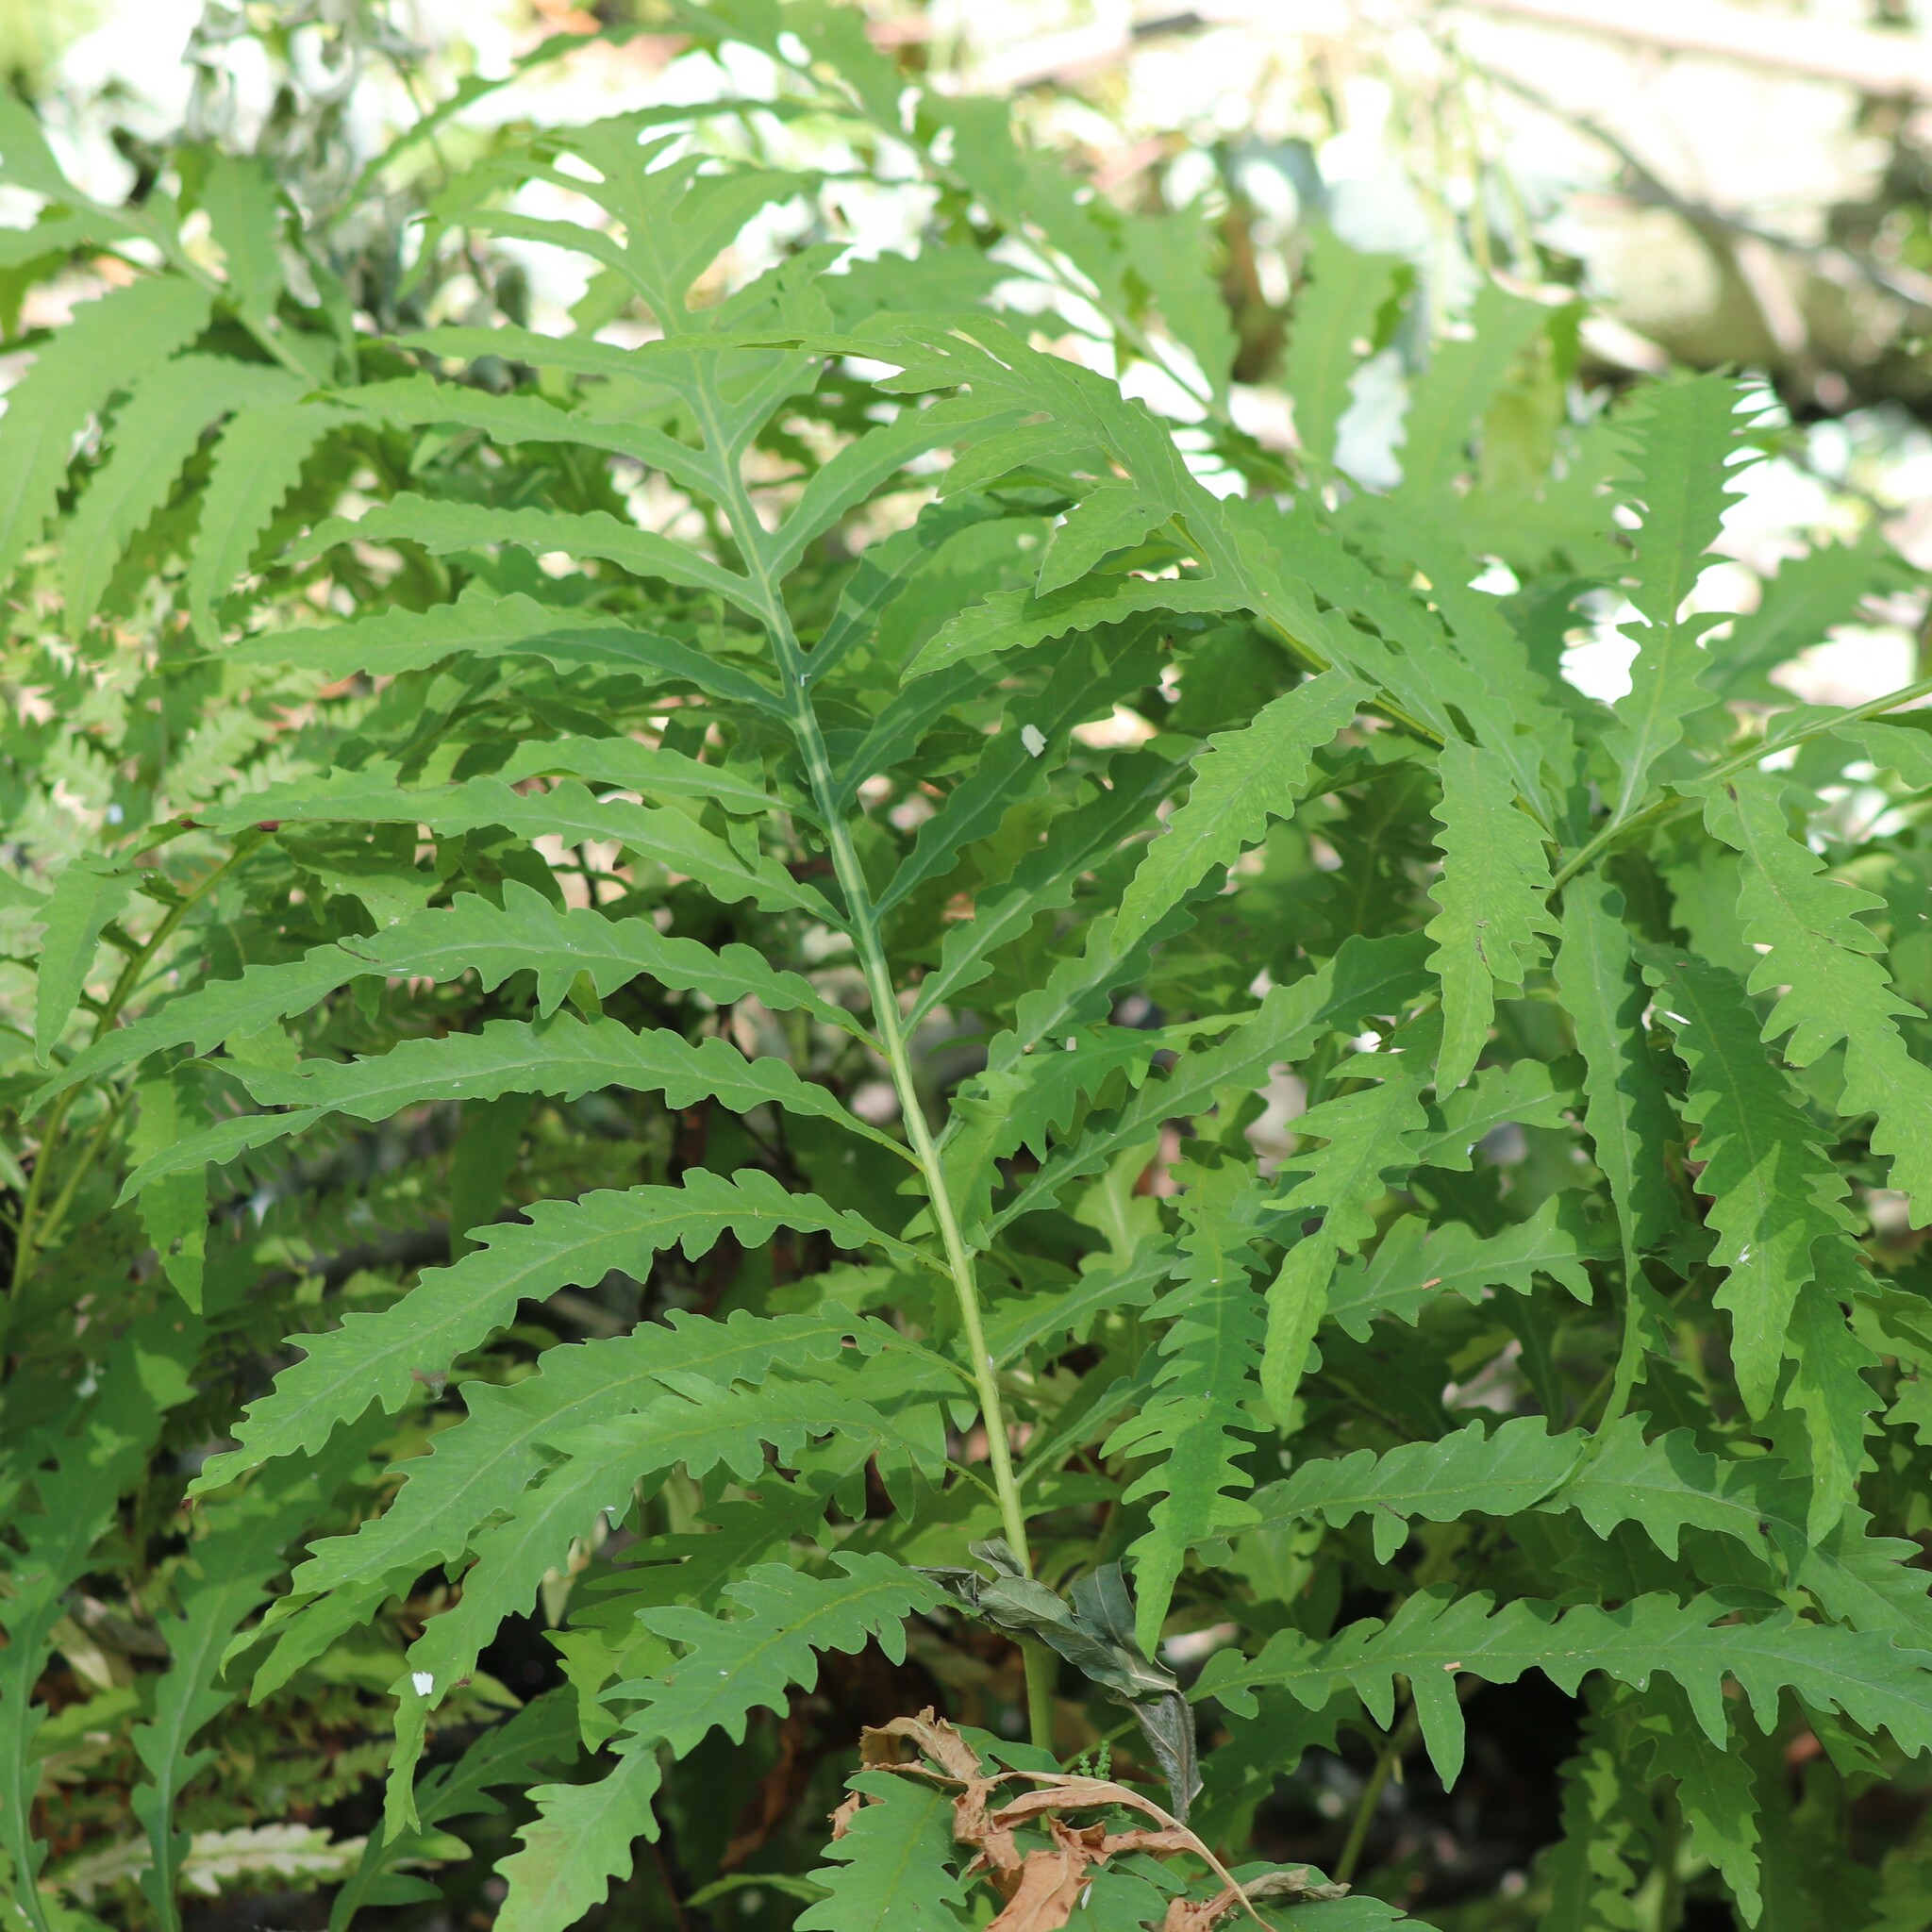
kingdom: Plantae
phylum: Tracheophyta
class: Polypodiopsida
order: Polypodiales
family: Onocleaceae
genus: Onoclea
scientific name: Onoclea sensibilis
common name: Sensitive fern
